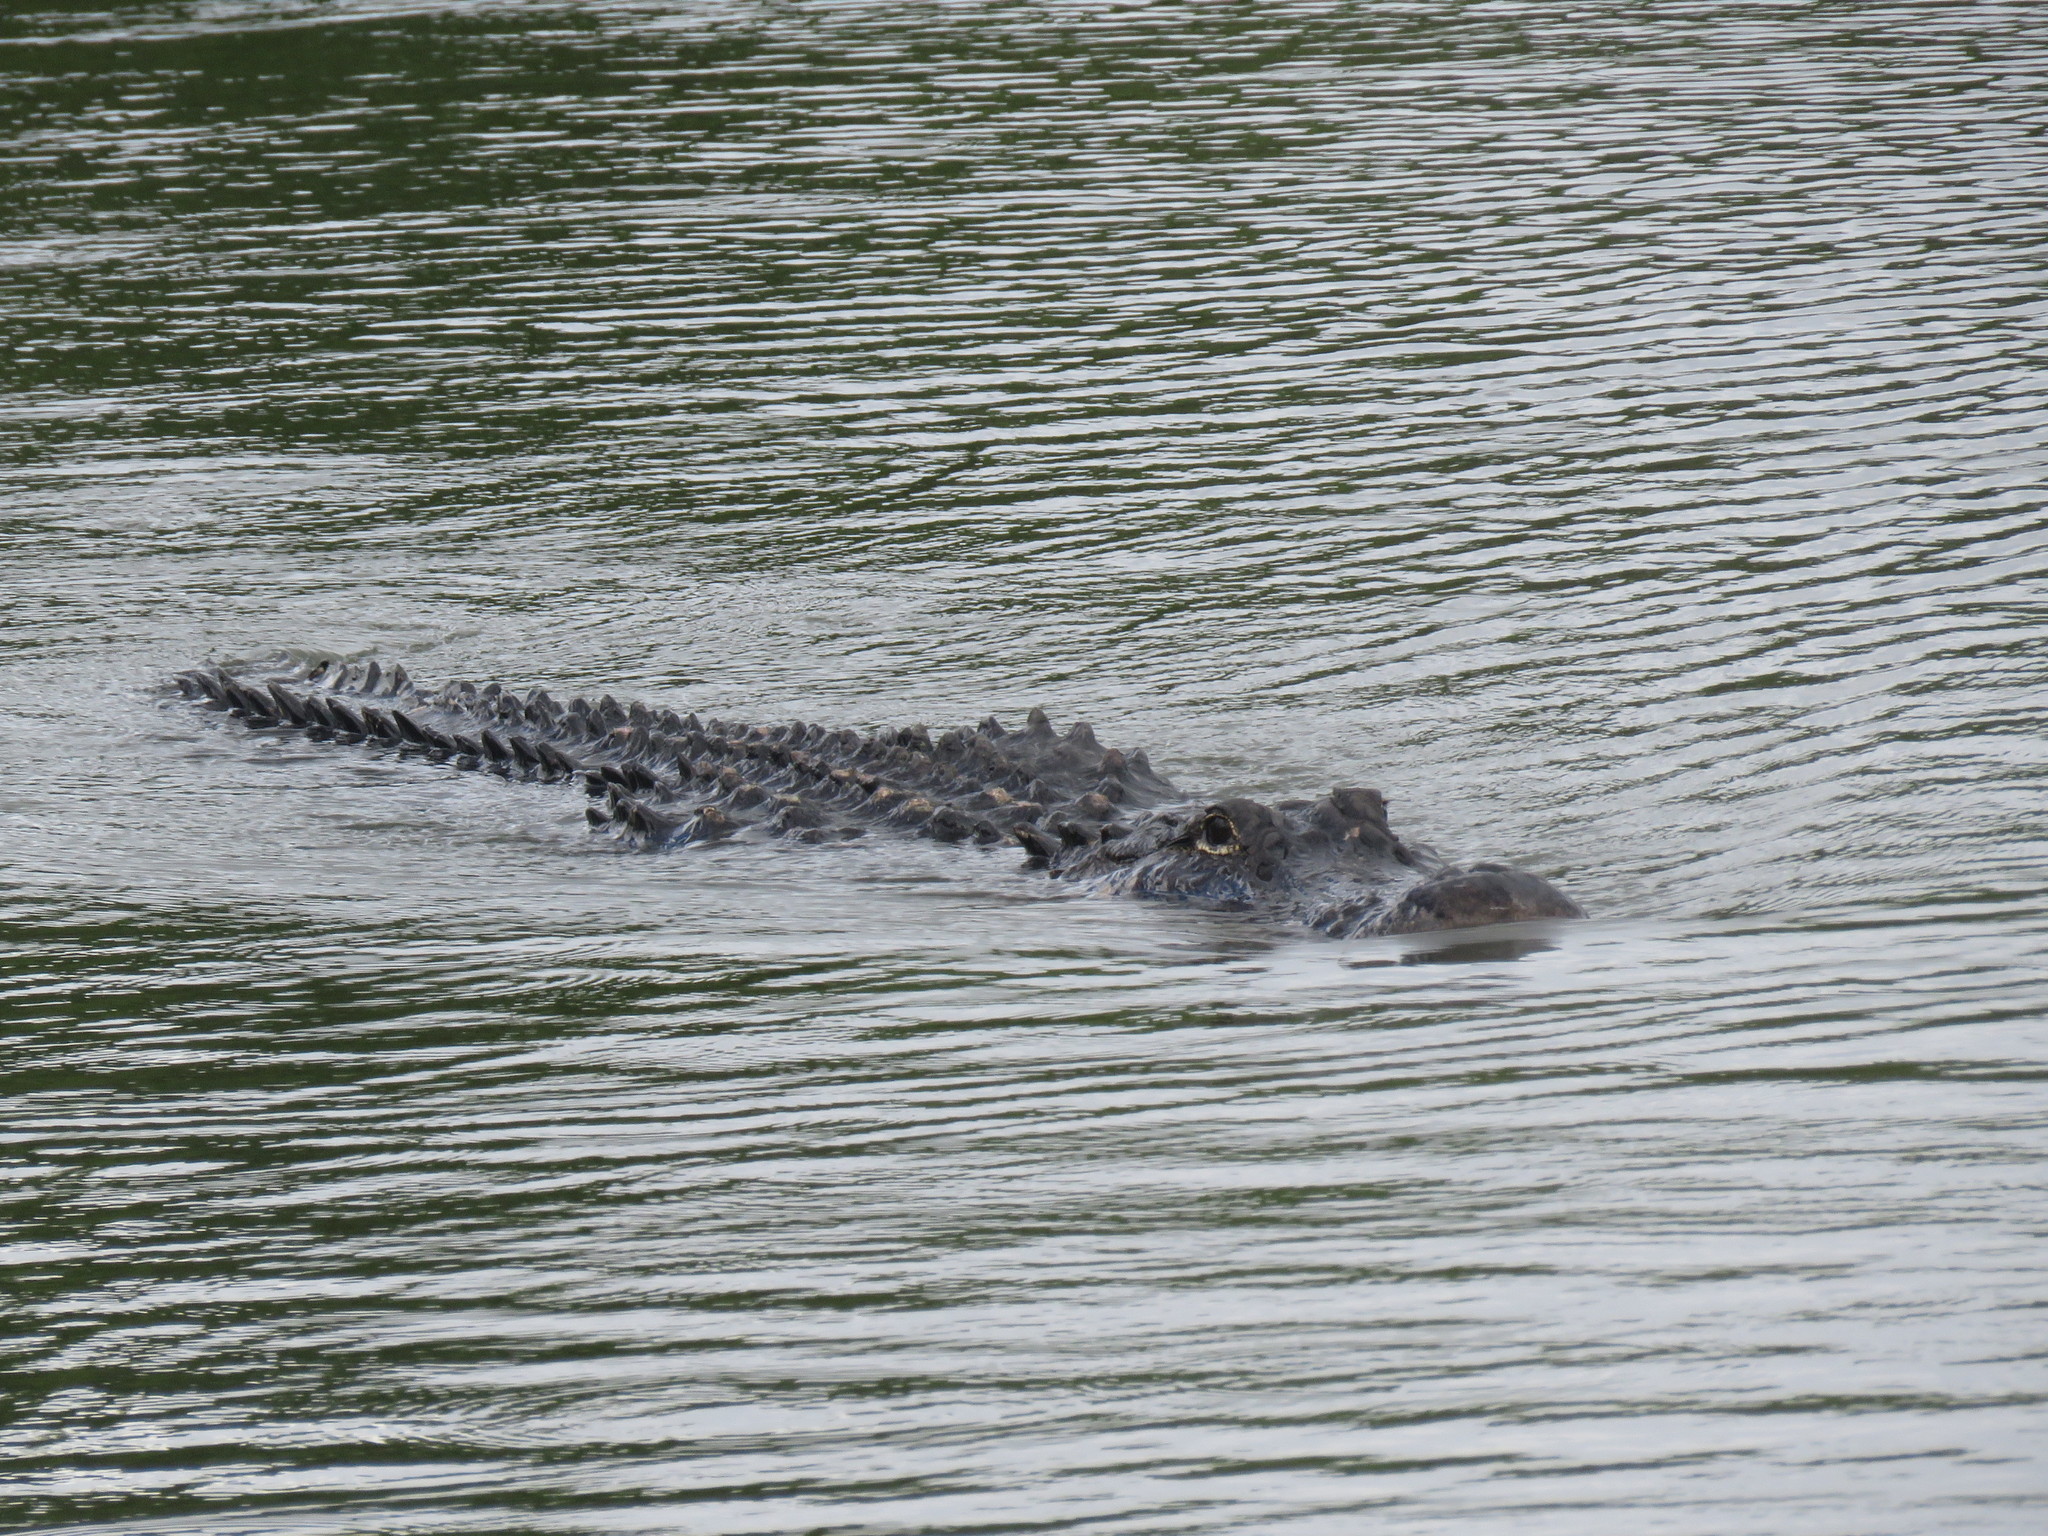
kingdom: Animalia
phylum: Chordata
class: Crocodylia
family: Alligatoridae
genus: Alligator
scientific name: Alligator mississippiensis
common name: American alligator
